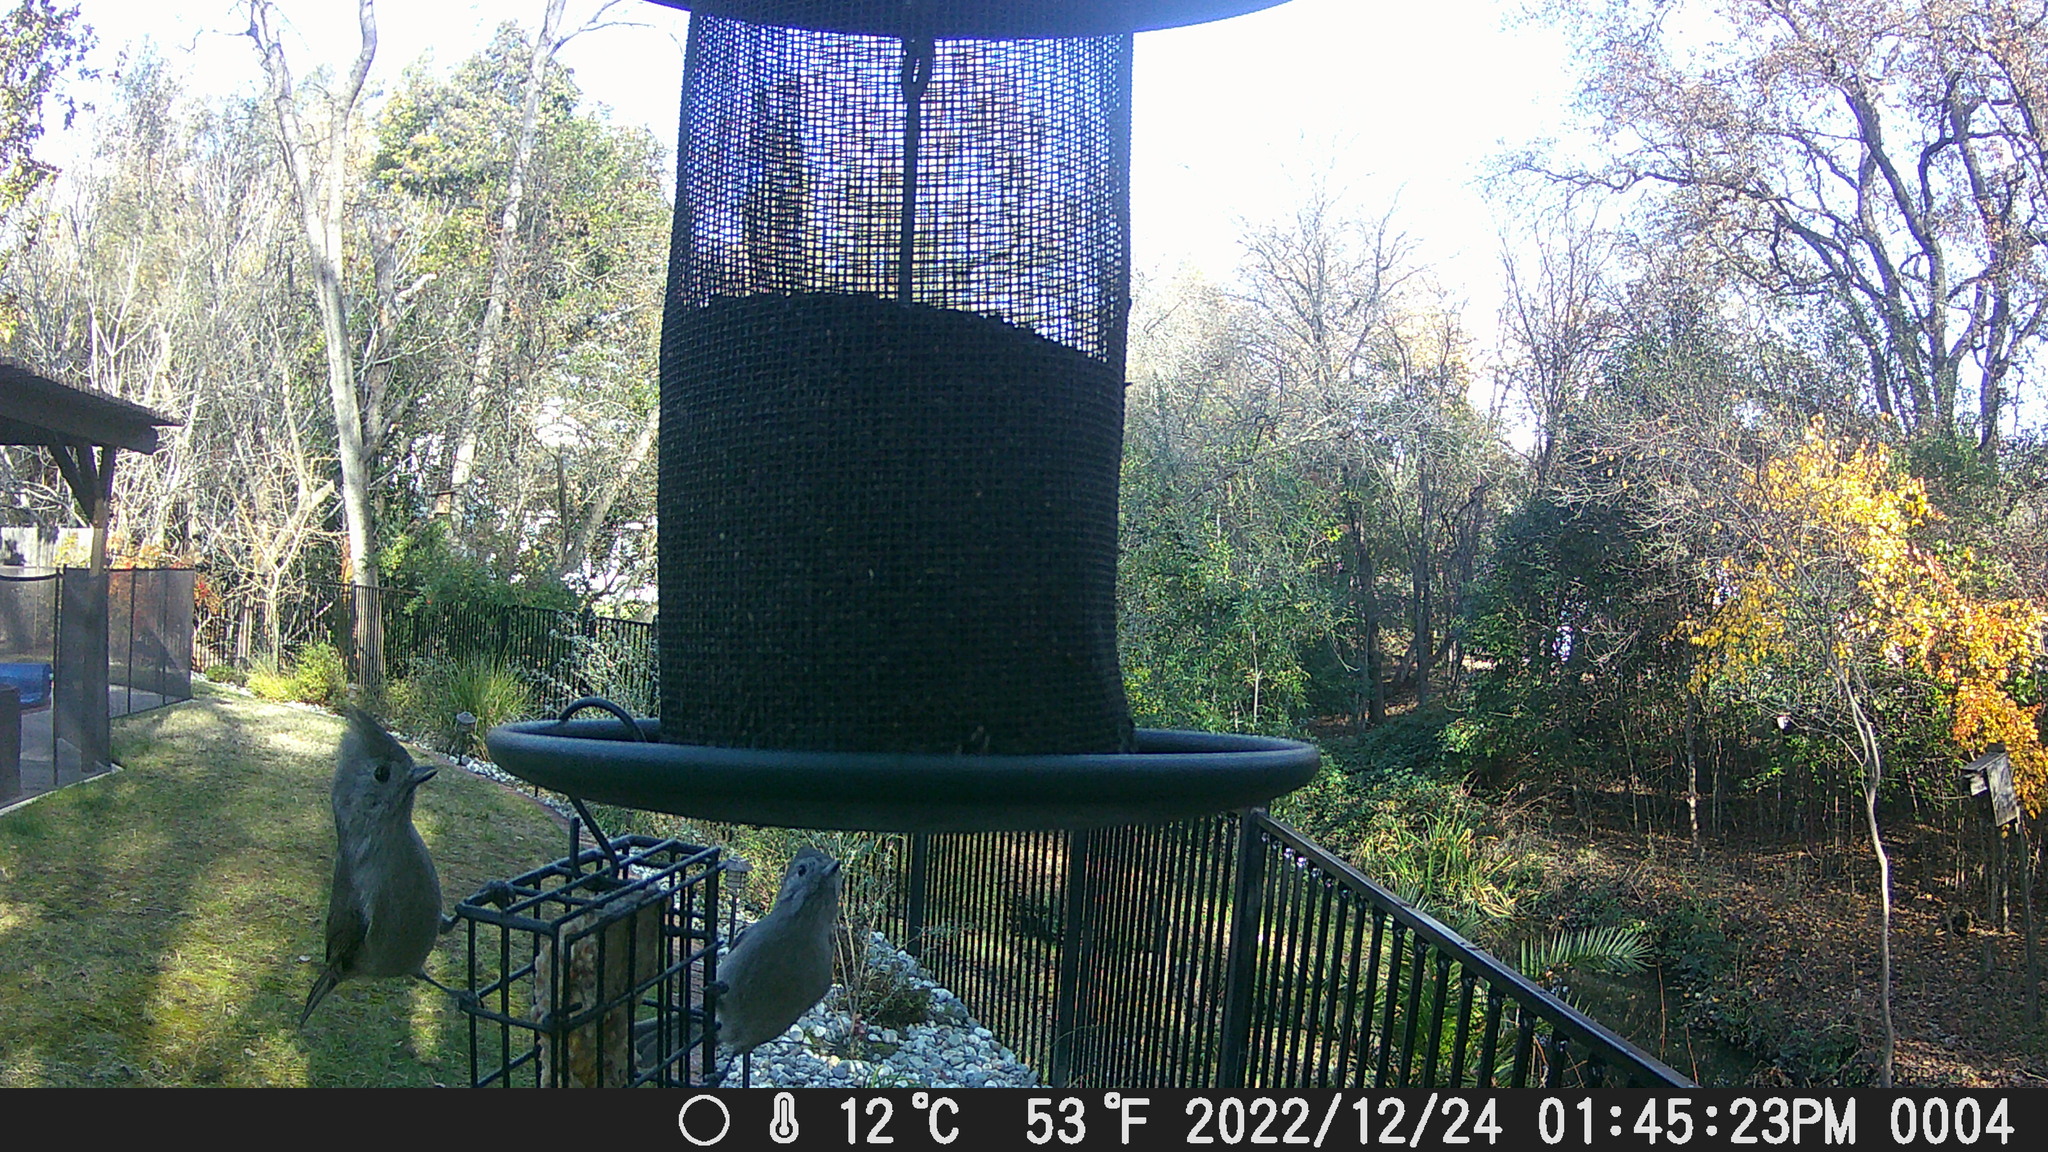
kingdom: Animalia
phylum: Chordata
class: Aves
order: Passeriformes
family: Paridae
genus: Baeolophus
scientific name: Baeolophus inornatus
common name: Oak titmouse
